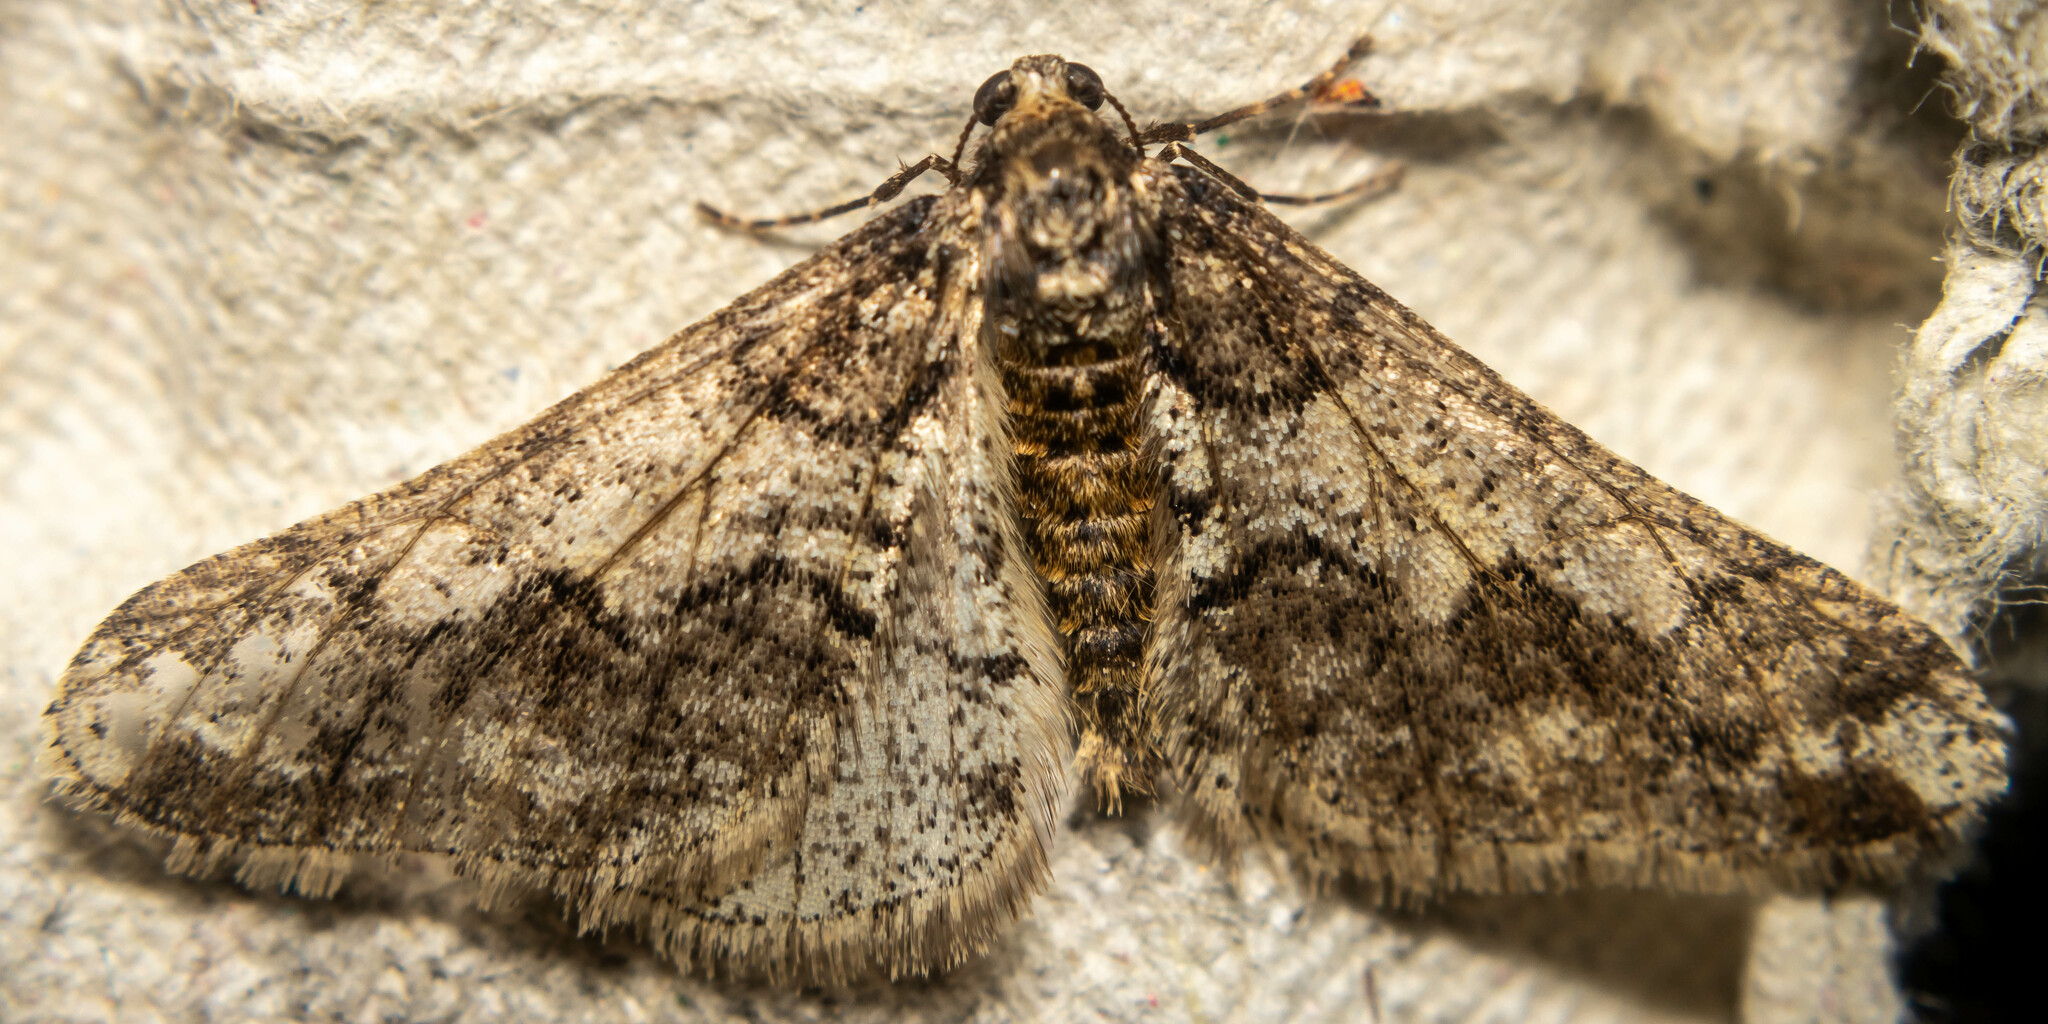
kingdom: Animalia
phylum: Arthropoda
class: Insecta
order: Lepidoptera
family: Geometridae
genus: Agriopis
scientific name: Agriopis leucophaearia
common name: Spring usher
